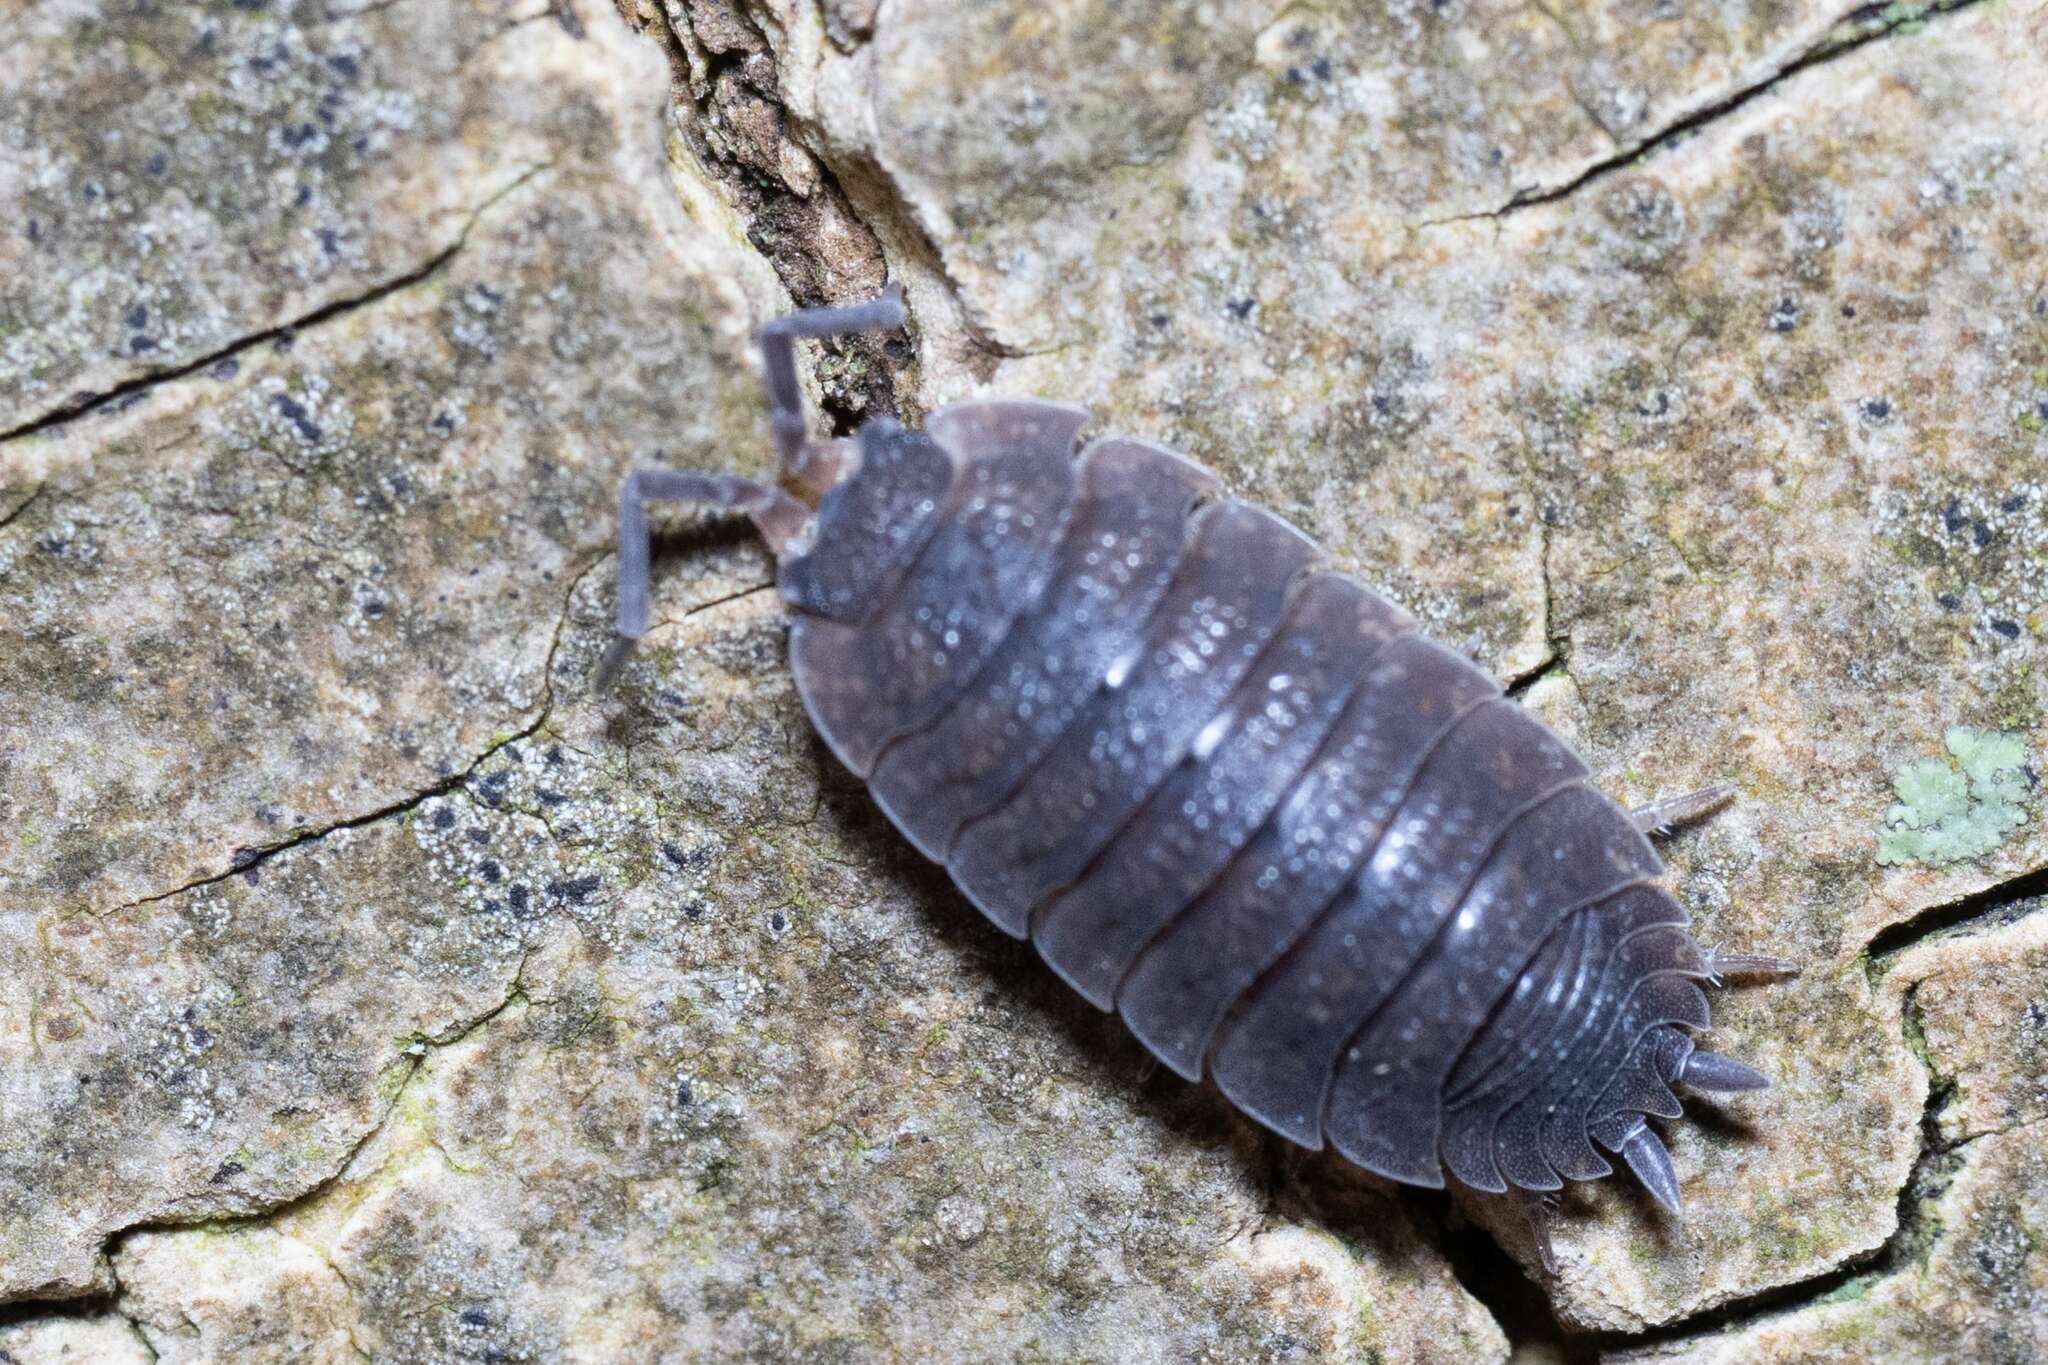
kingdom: Animalia
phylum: Arthropoda
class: Malacostraca
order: Isopoda
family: Porcellionidae
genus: Porcellio
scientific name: Porcellio scaber
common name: Common rough woodlouse
